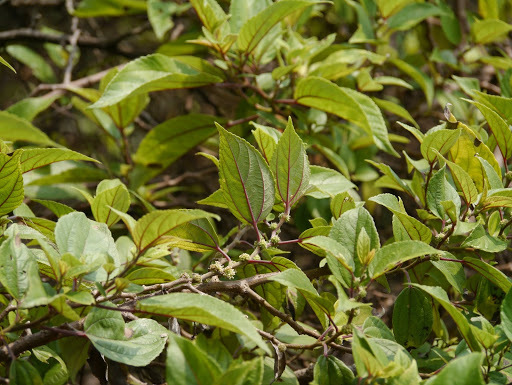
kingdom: Plantae
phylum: Tracheophyta
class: Magnoliopsida
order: Rosales
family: Urticaceae
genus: Pipturus
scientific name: Pipturus albidus
